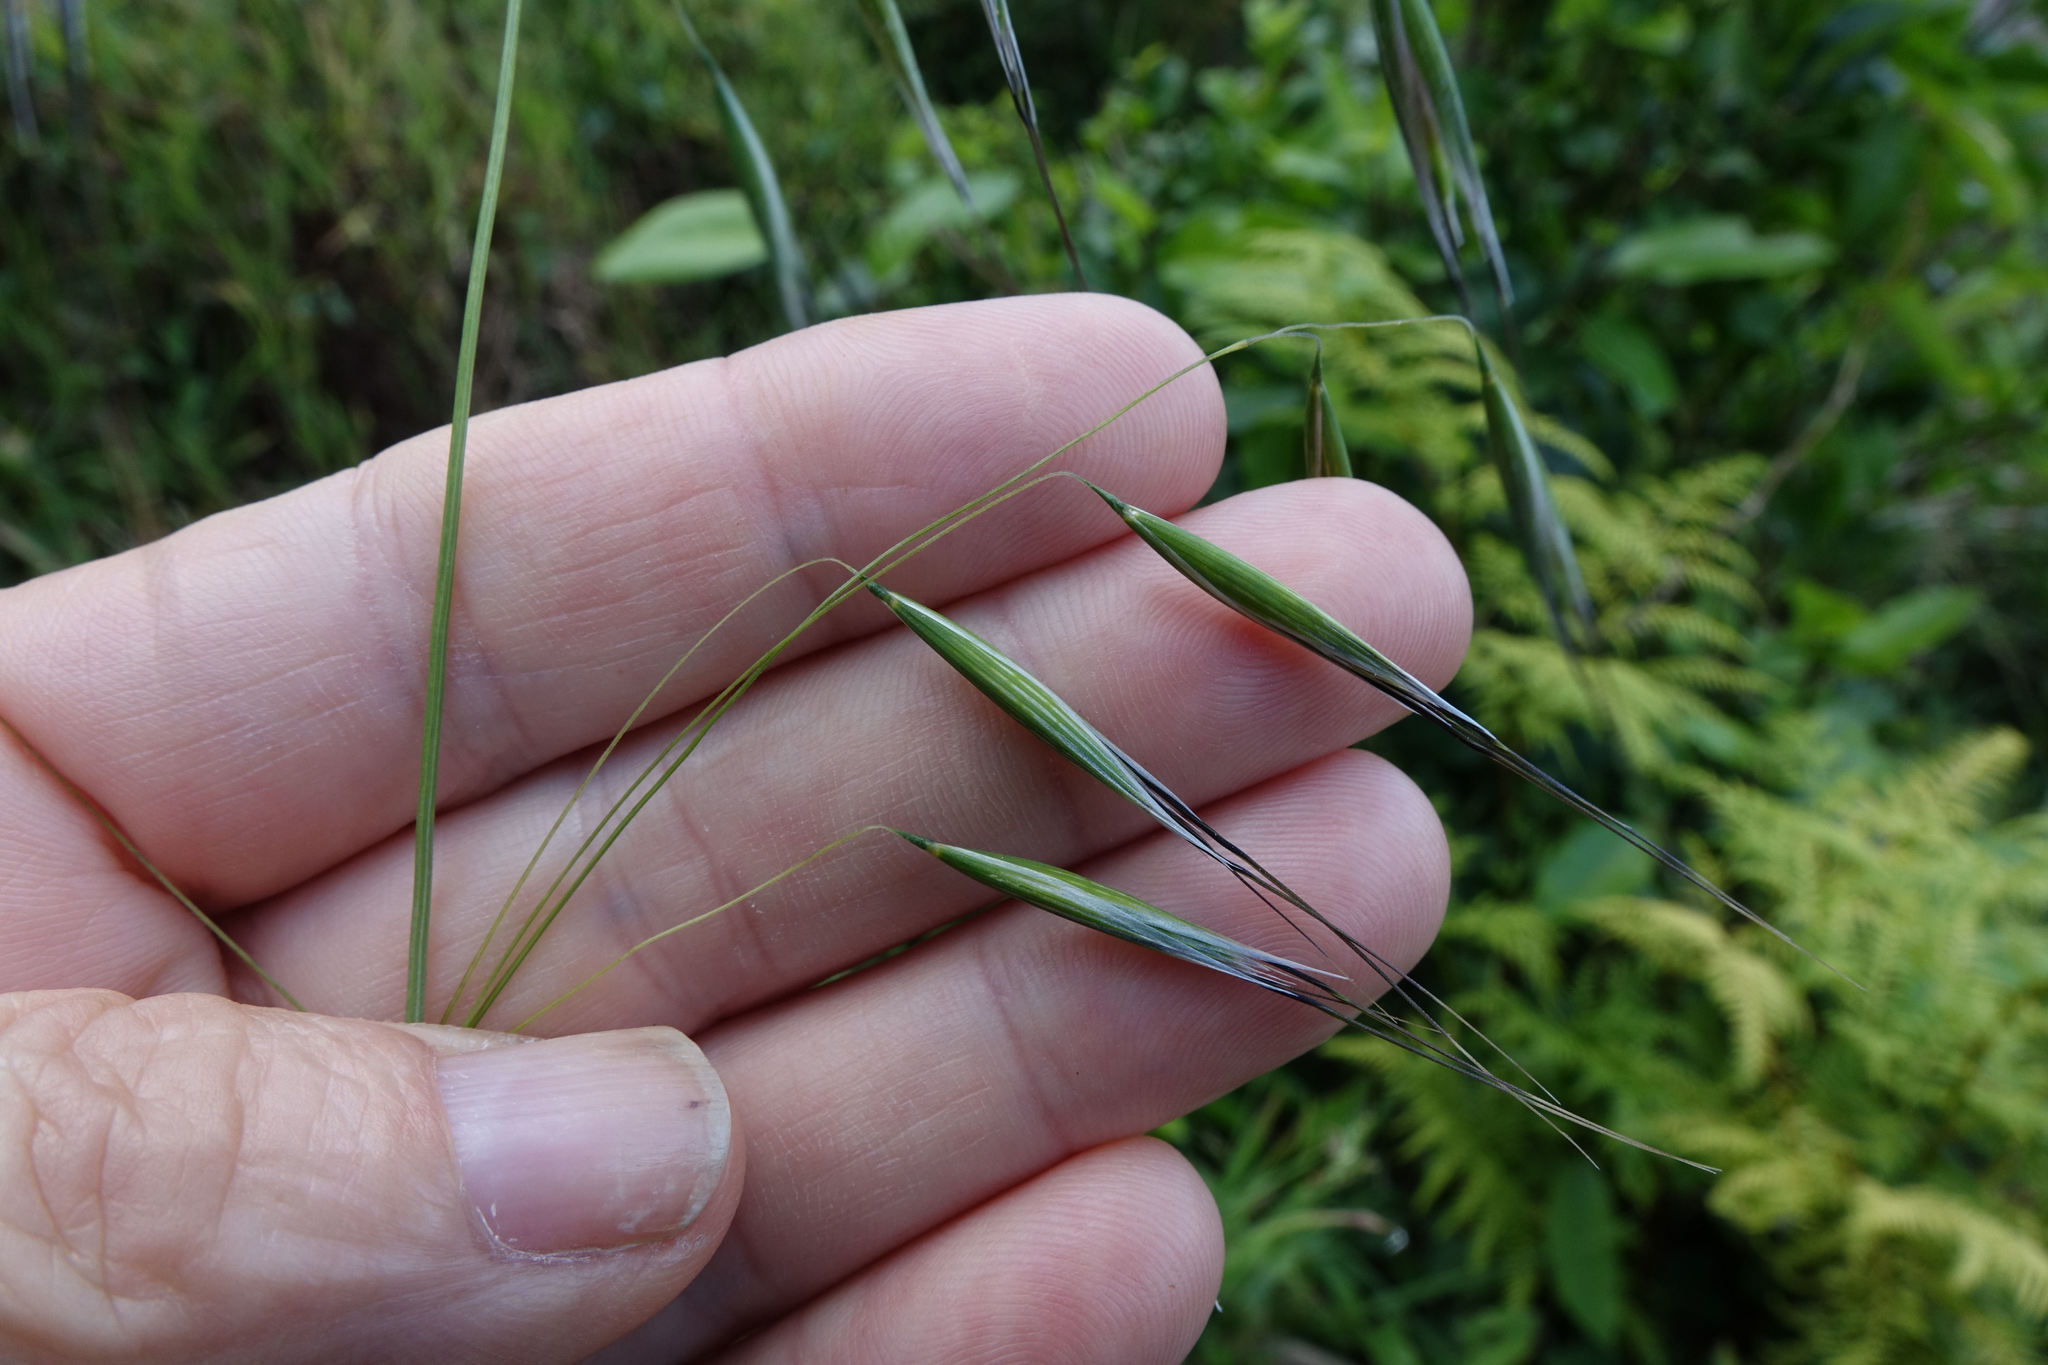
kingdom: Plantae
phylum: Tracheophyta
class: Liliopsida
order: Poales
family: Poaceae
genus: Avena
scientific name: Avena barbata
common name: Slender oat
